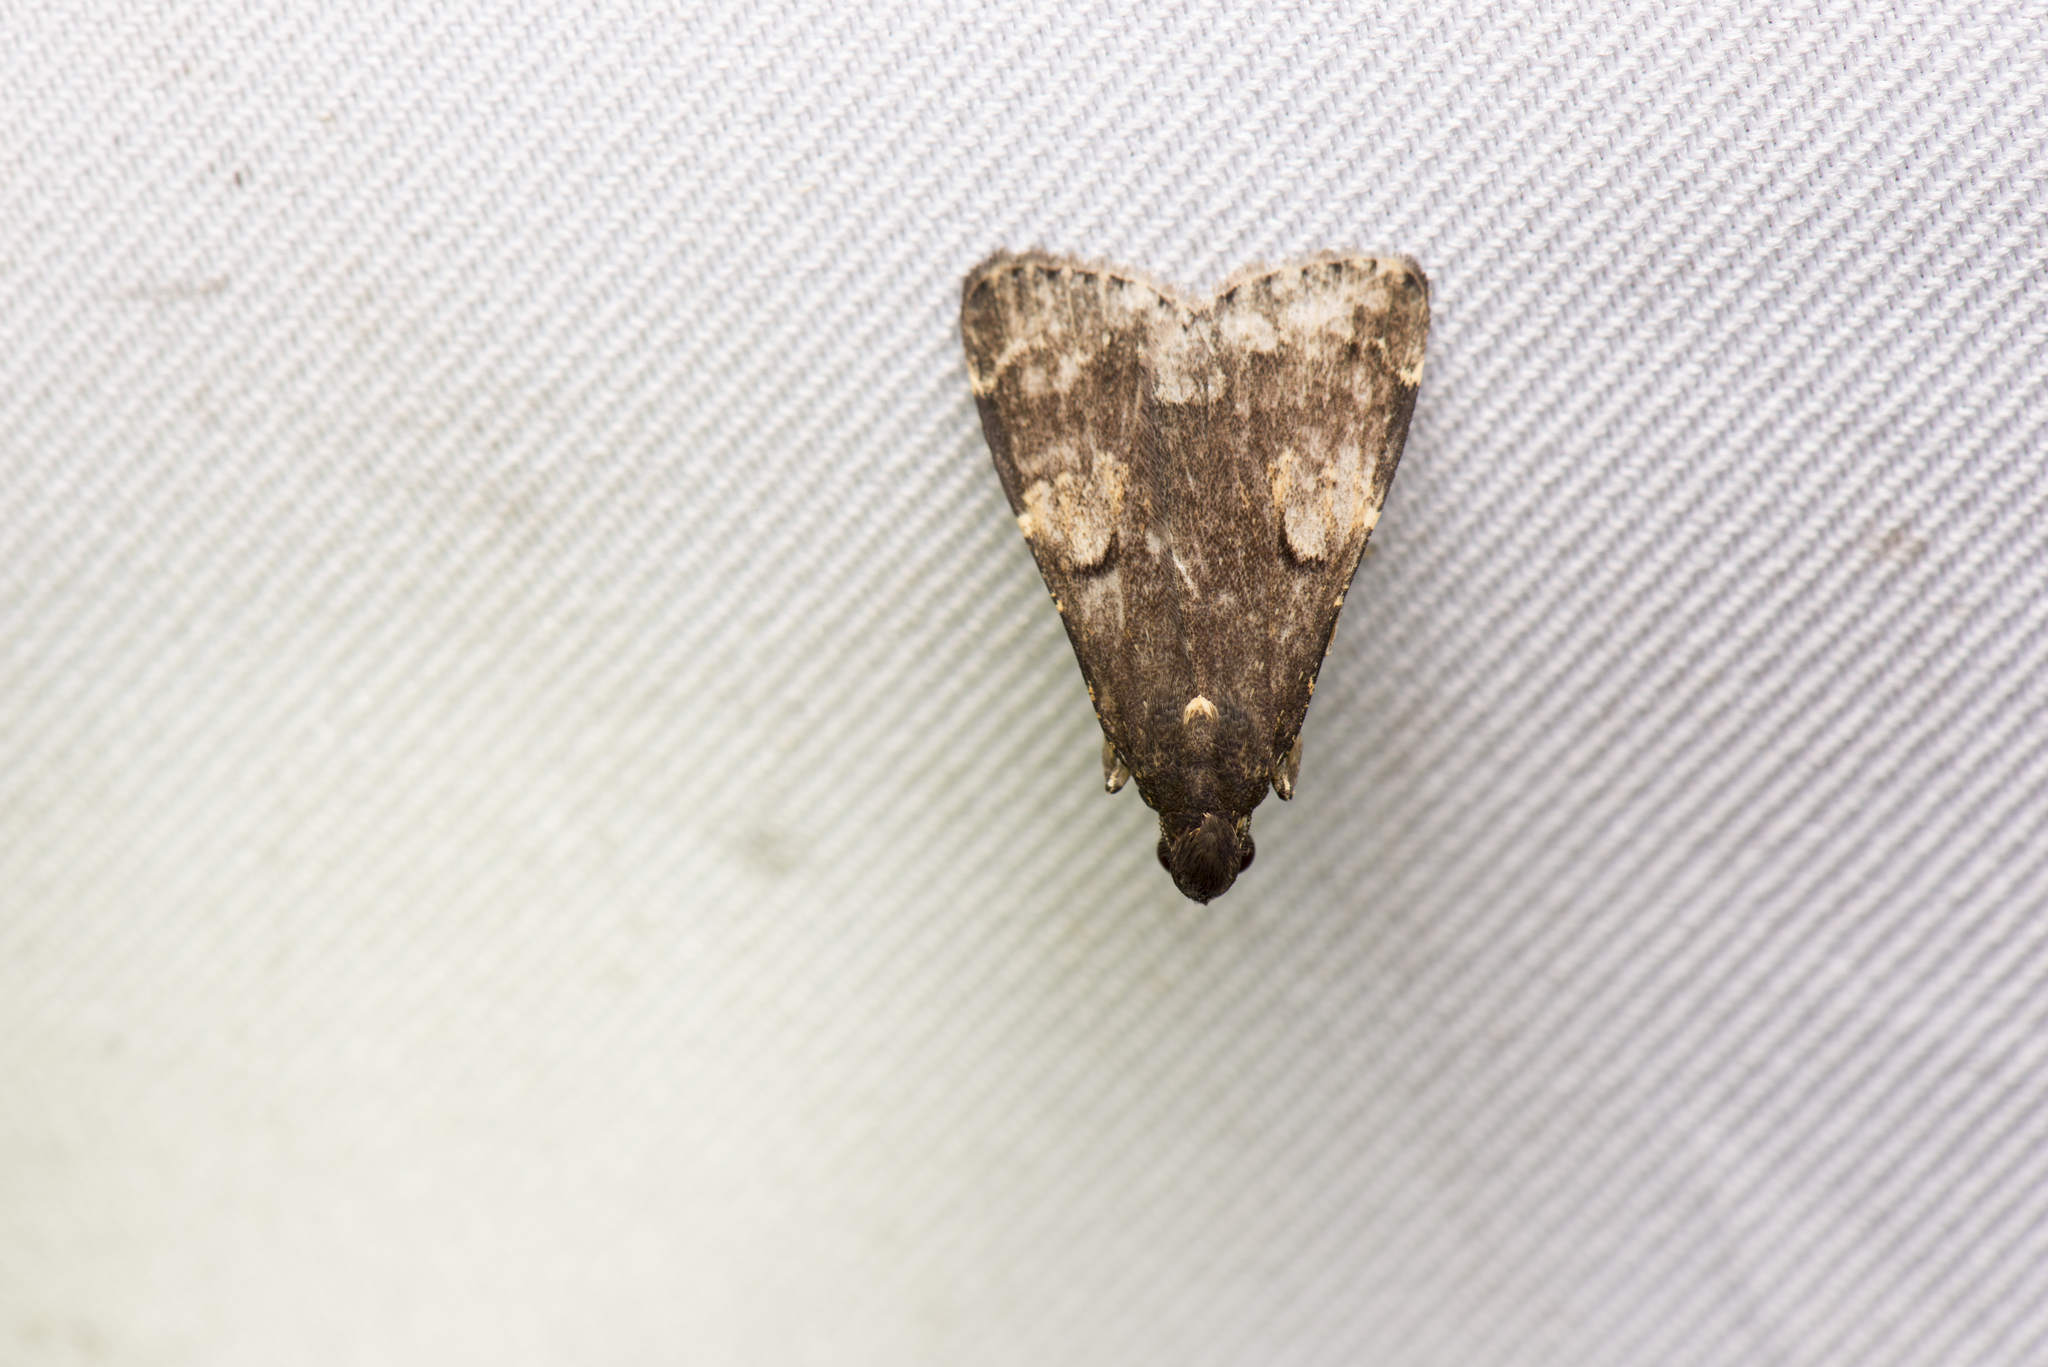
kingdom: Animalia
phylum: Arthropoda
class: Insecta
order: Lepidoptera
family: Erebidae
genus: Hydrillodes
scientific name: Hydrillodes gravatalis
